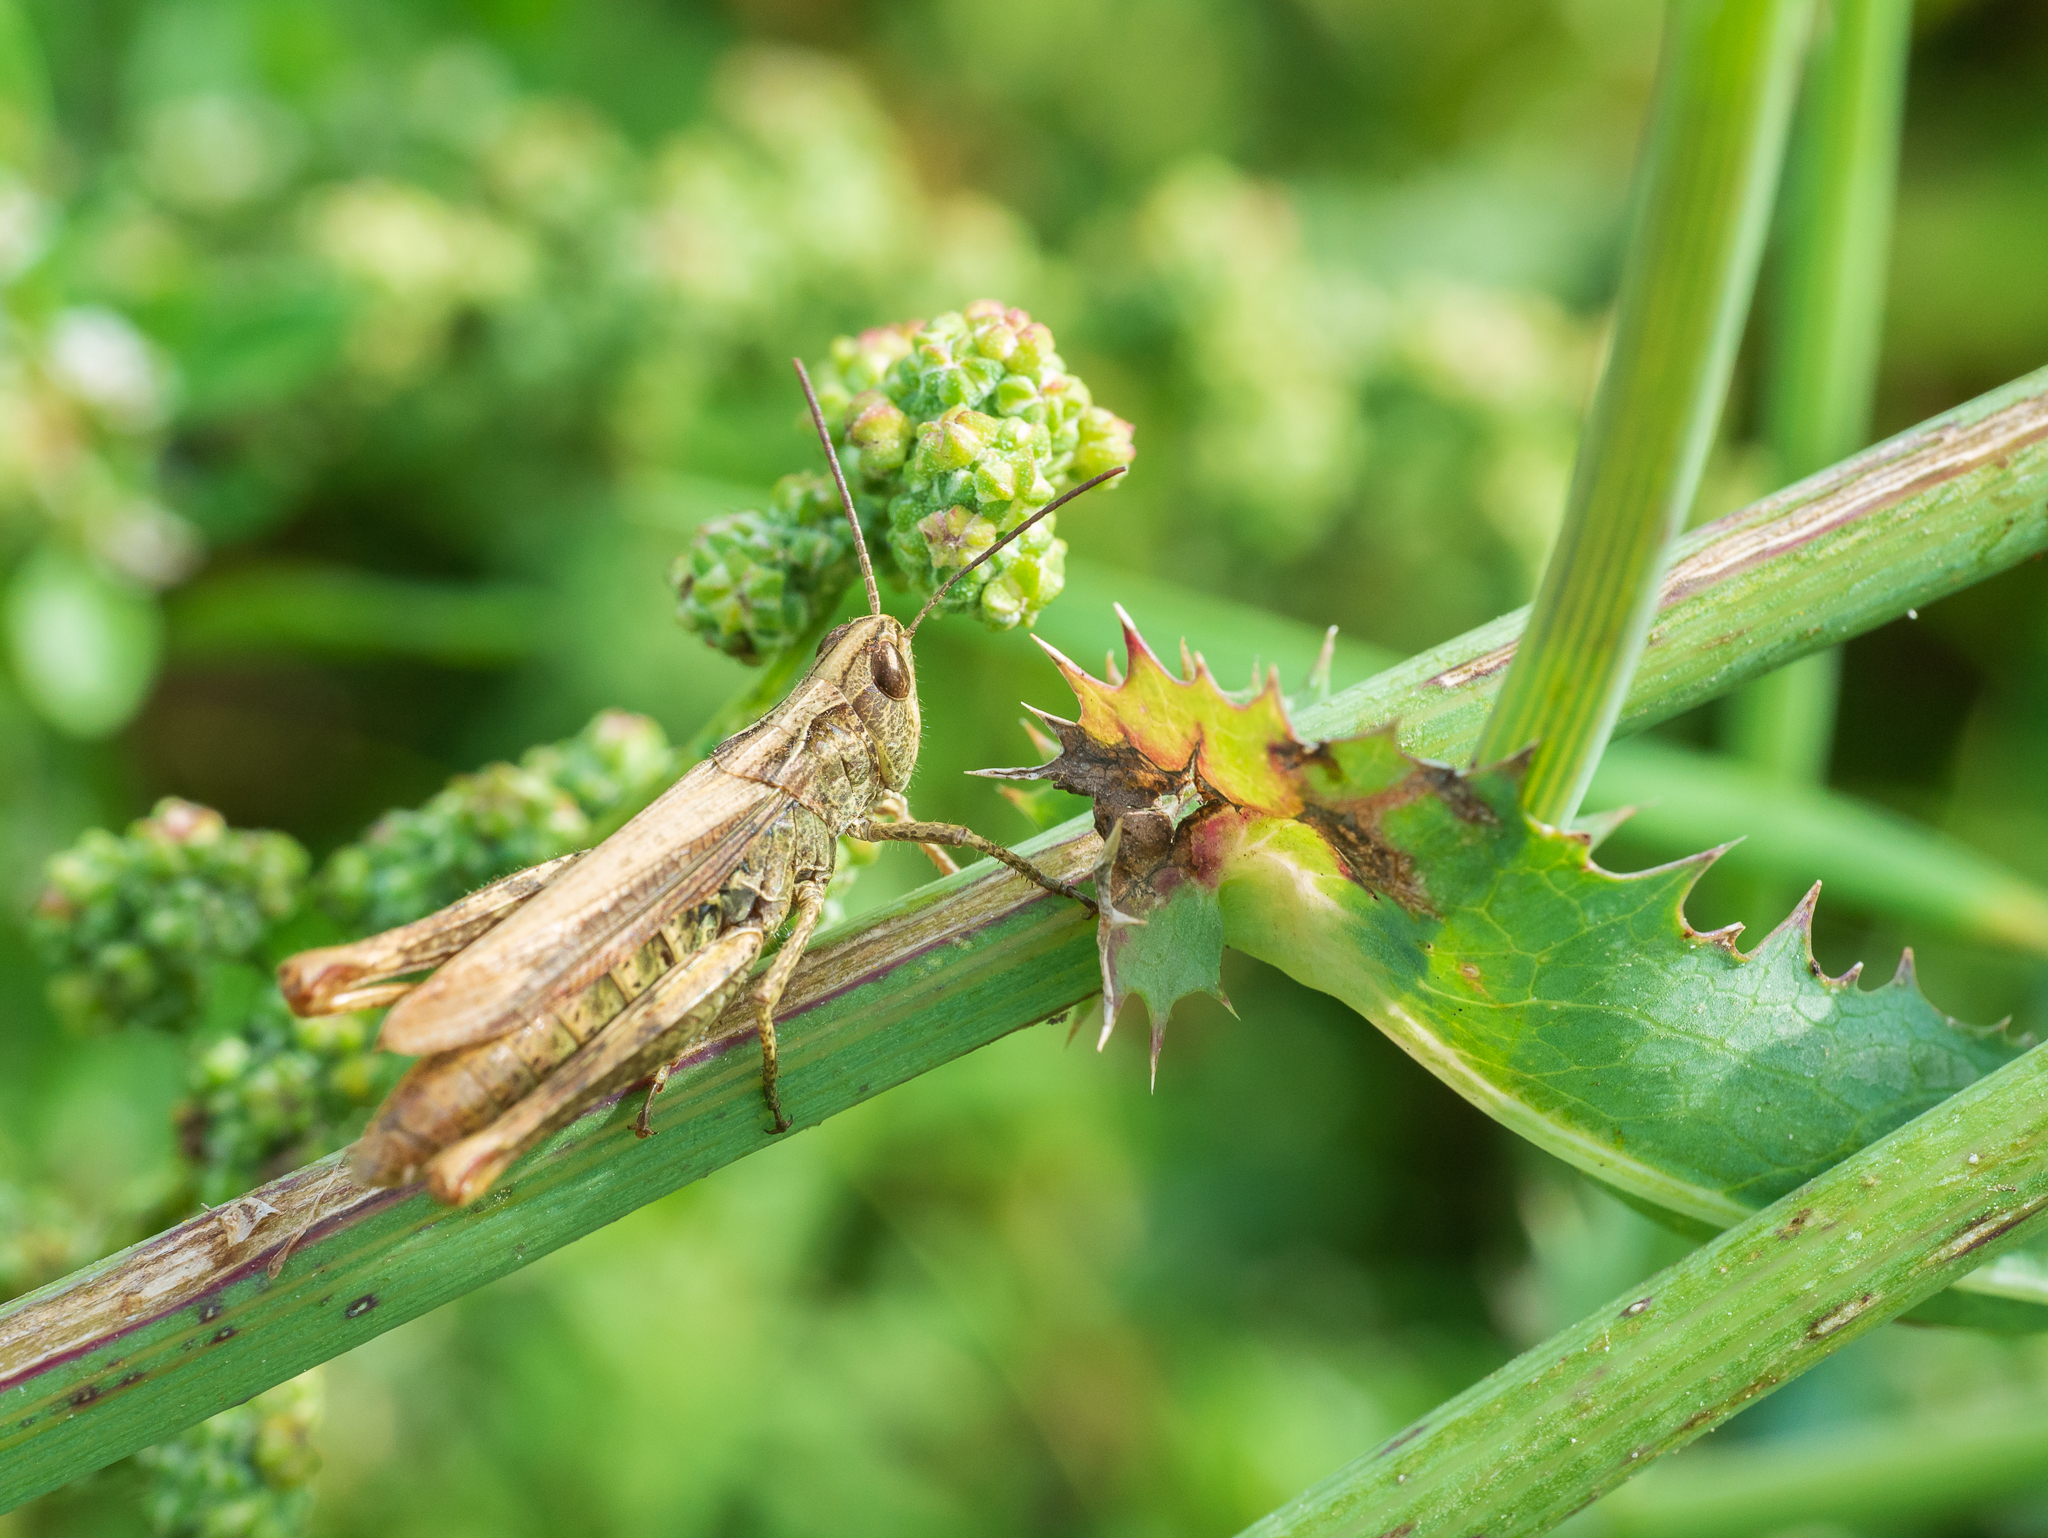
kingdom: Animalia
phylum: Arthropoda
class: Insecta
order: Orthoptera
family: Acrididae
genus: Chorthippus
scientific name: Chorthippus apricarius
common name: Upland field grasshopper
